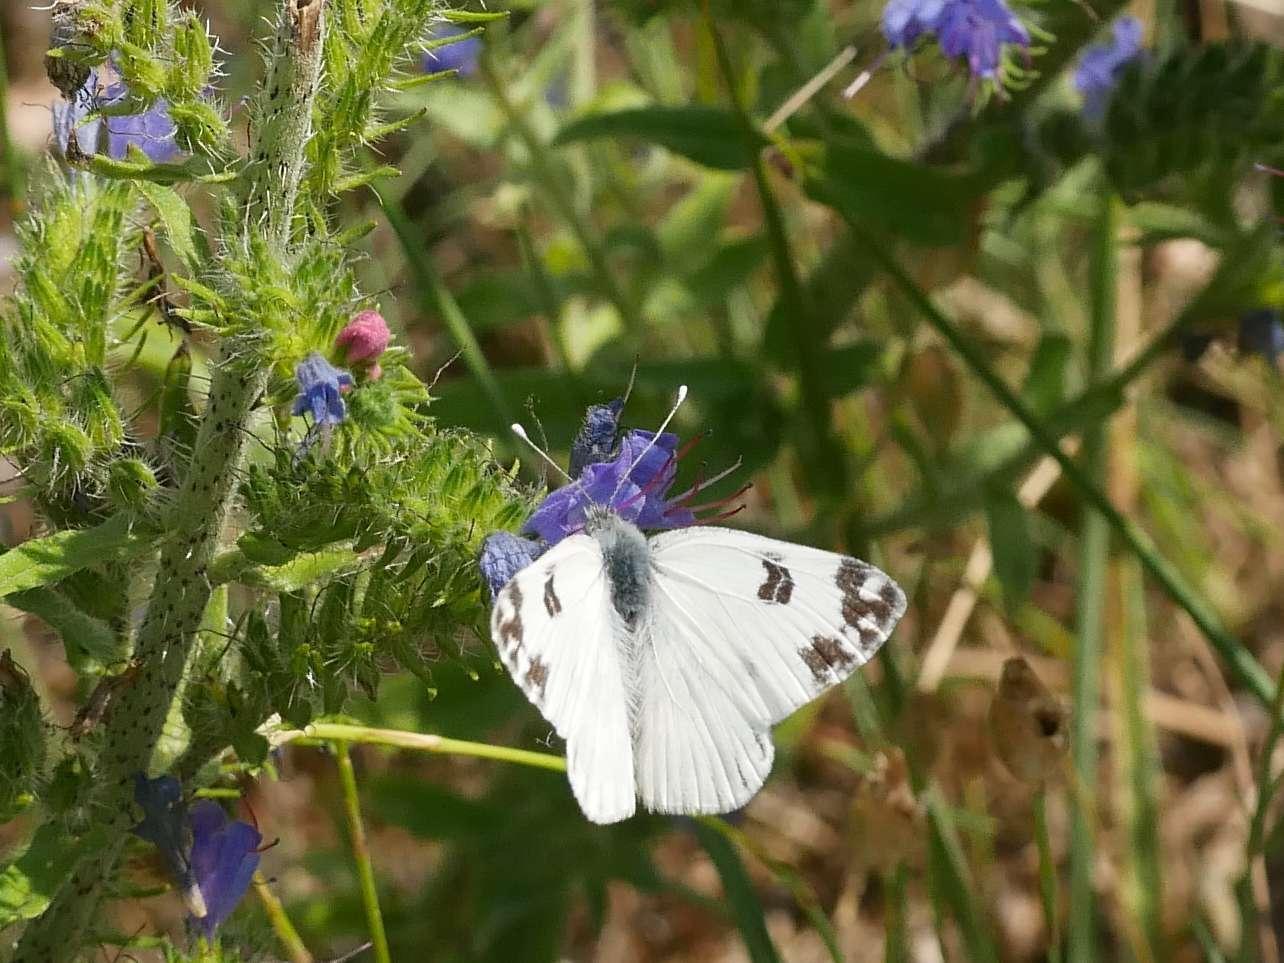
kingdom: Animalia
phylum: Arthropoda
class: Insecta
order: Lepidoptera
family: Pieridae
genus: Pontia
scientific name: Pontia edusa
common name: Eastern bath white
